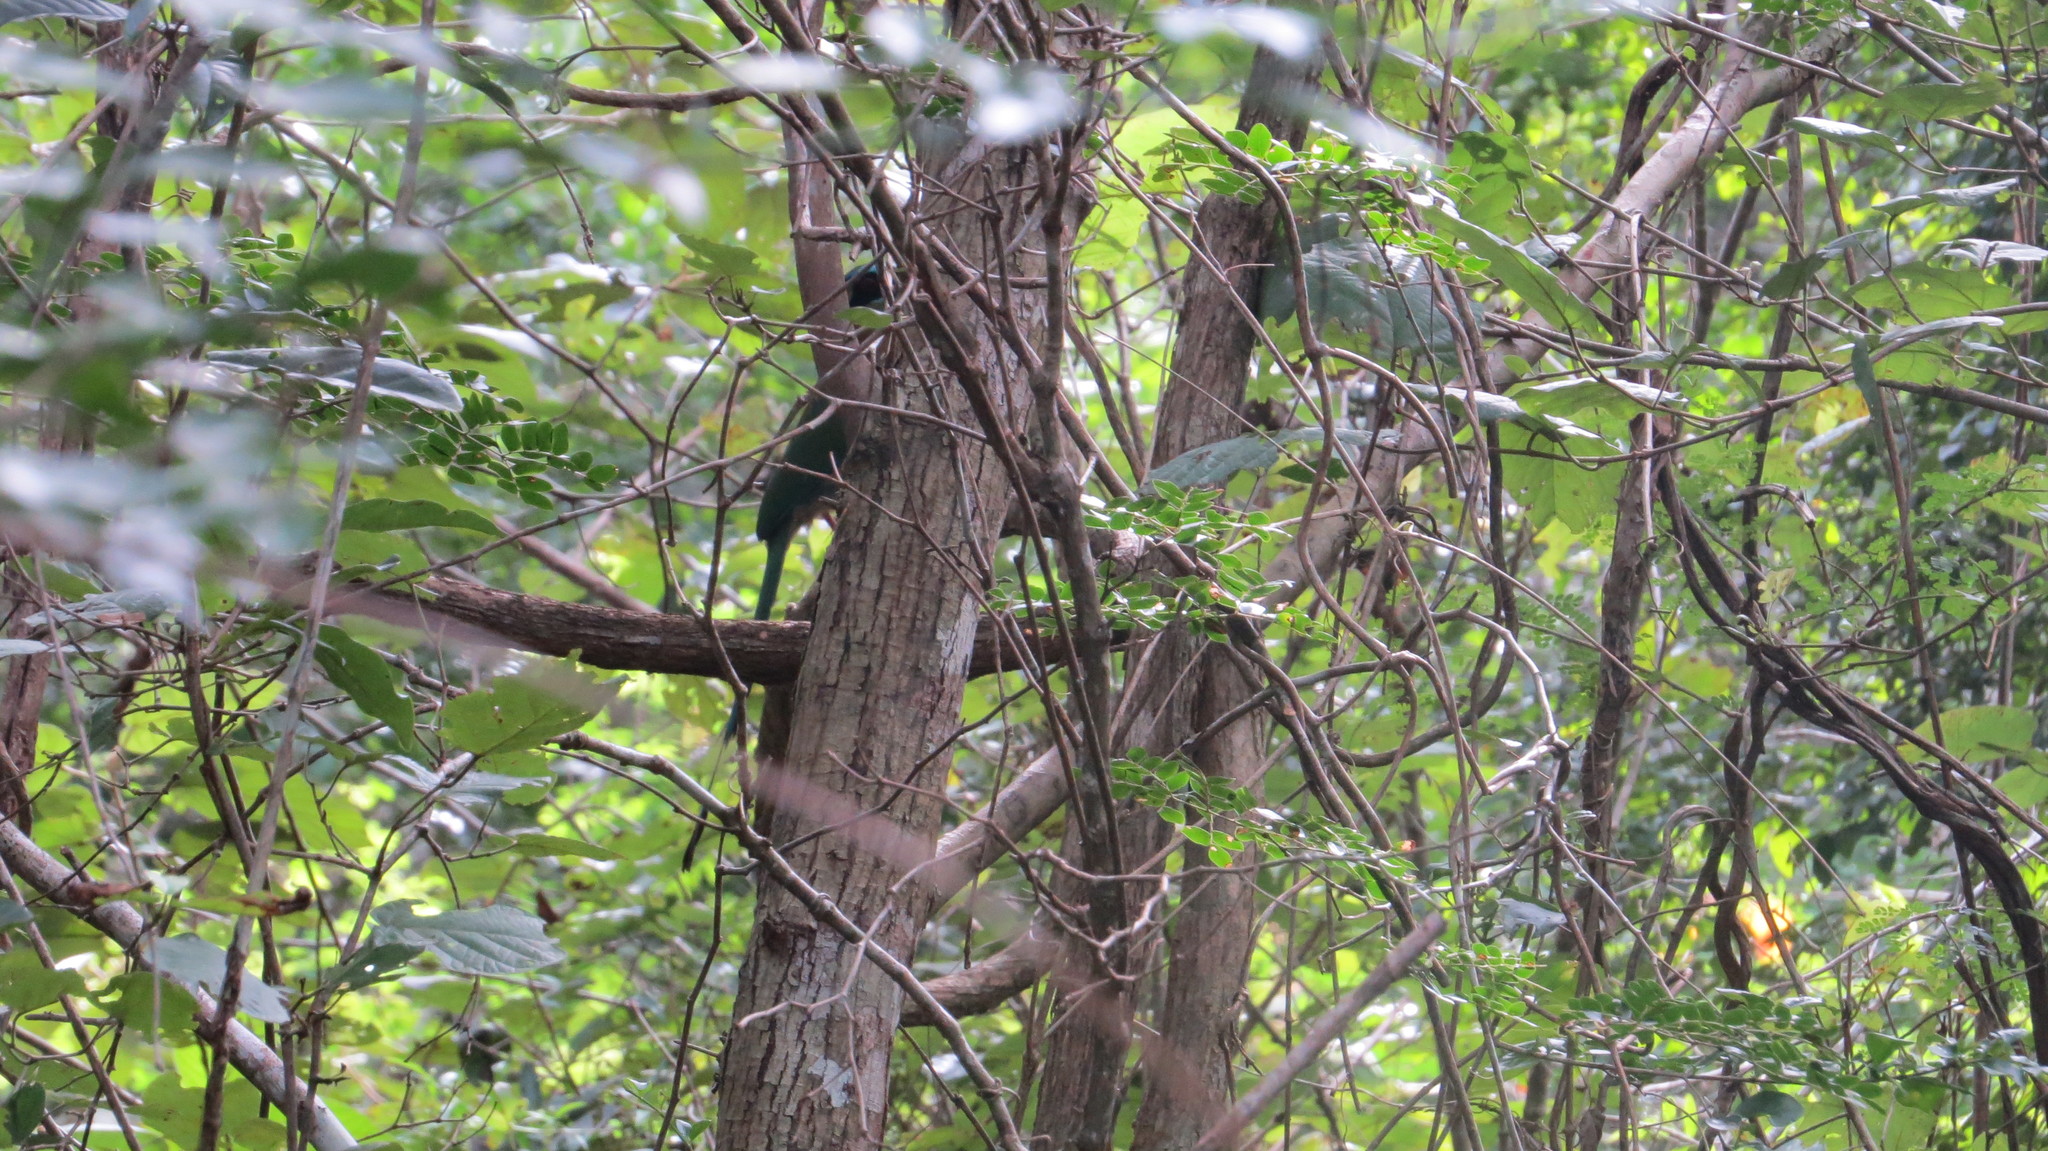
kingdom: Animalia
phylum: Chordata
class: Aves
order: Coraciiformes
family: Momotidae
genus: Momotus
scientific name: Momotus lessonii
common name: Lesson's motmot
